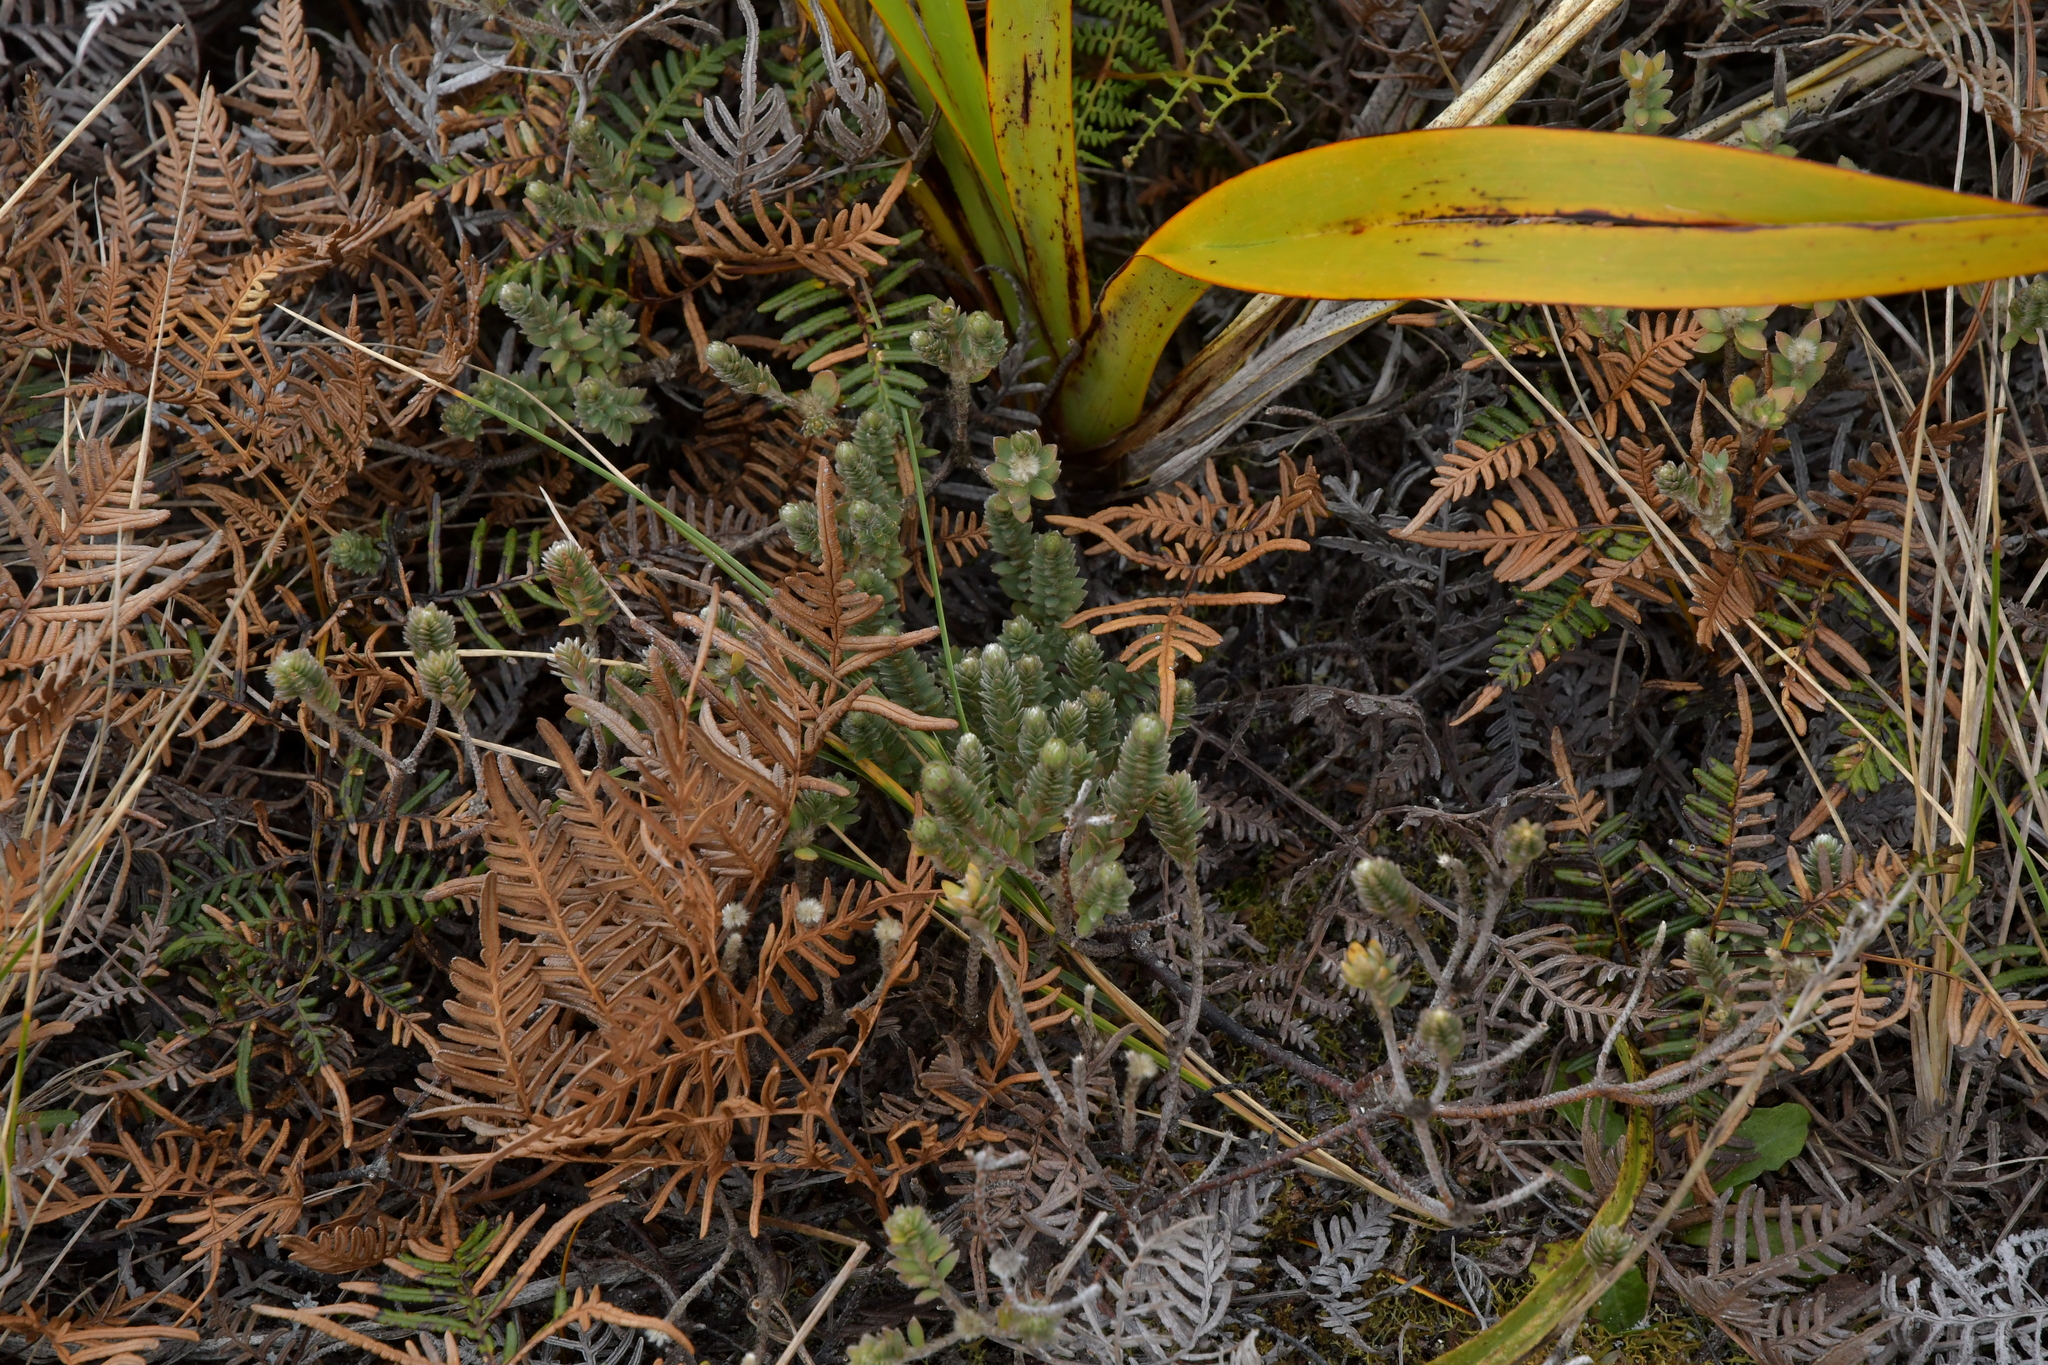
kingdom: Plantae
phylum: Tracheophyta
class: Magnoliopsida
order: Malvales
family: Thymelaeaceae
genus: Pimelea
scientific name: Pimelea villosa
